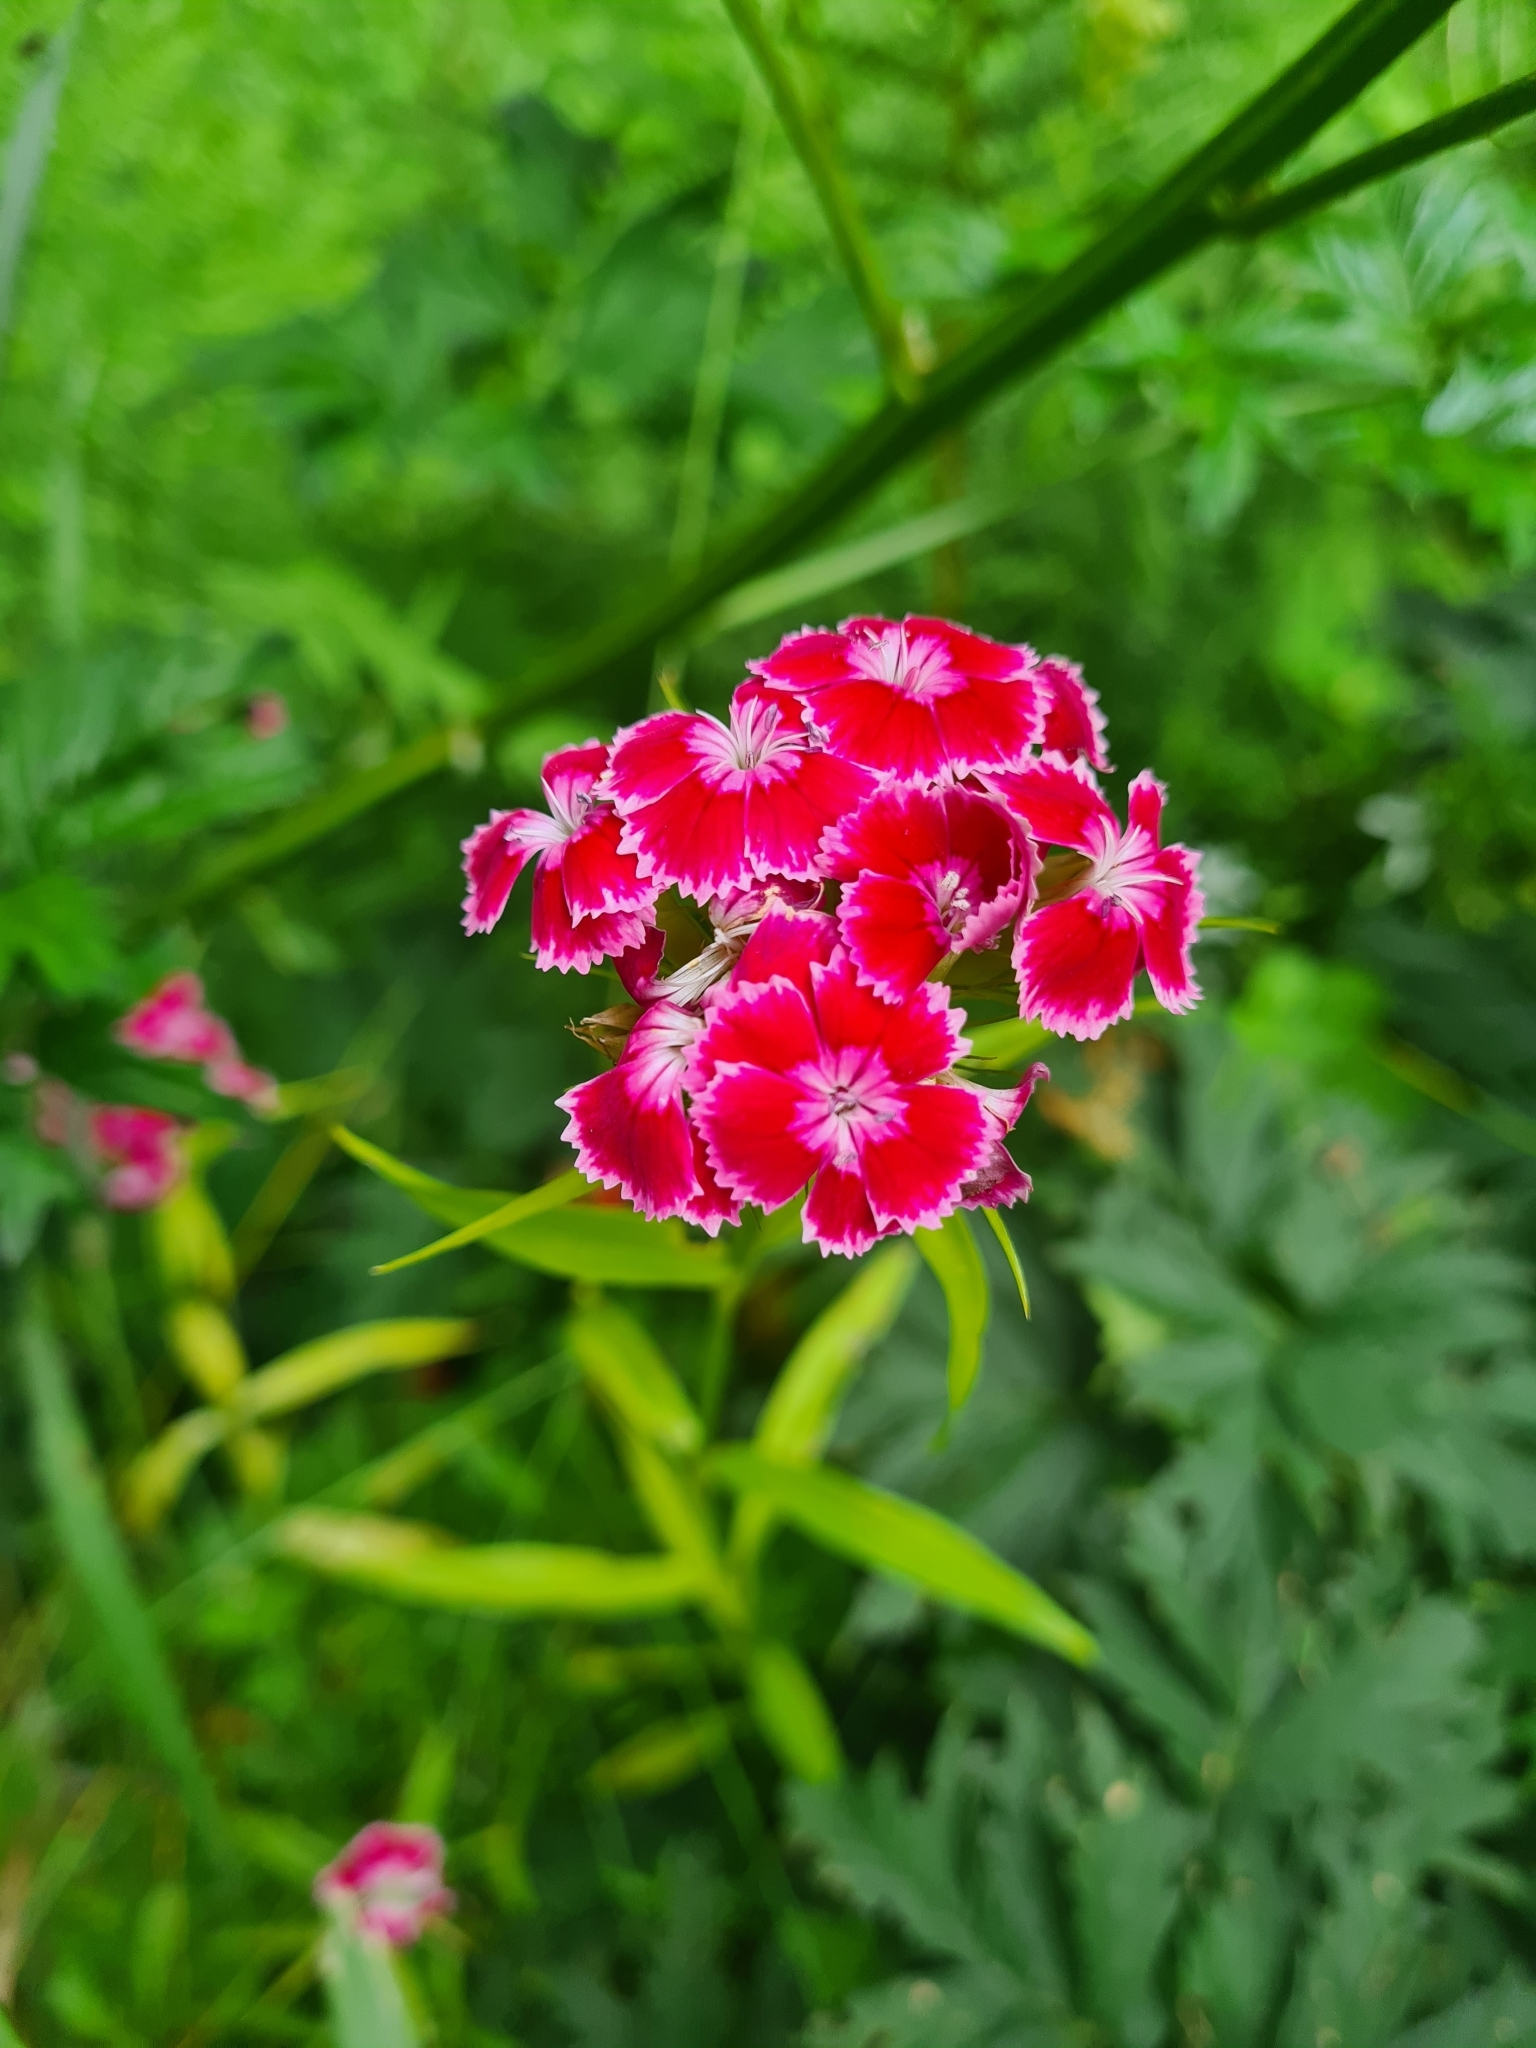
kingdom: Plantae
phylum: Tracheophyta
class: Magnoliopsida
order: Caryophyllales
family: Caryophyllaceae
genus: Dianthus
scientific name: Dianthus barbatus
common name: Sweet-william
